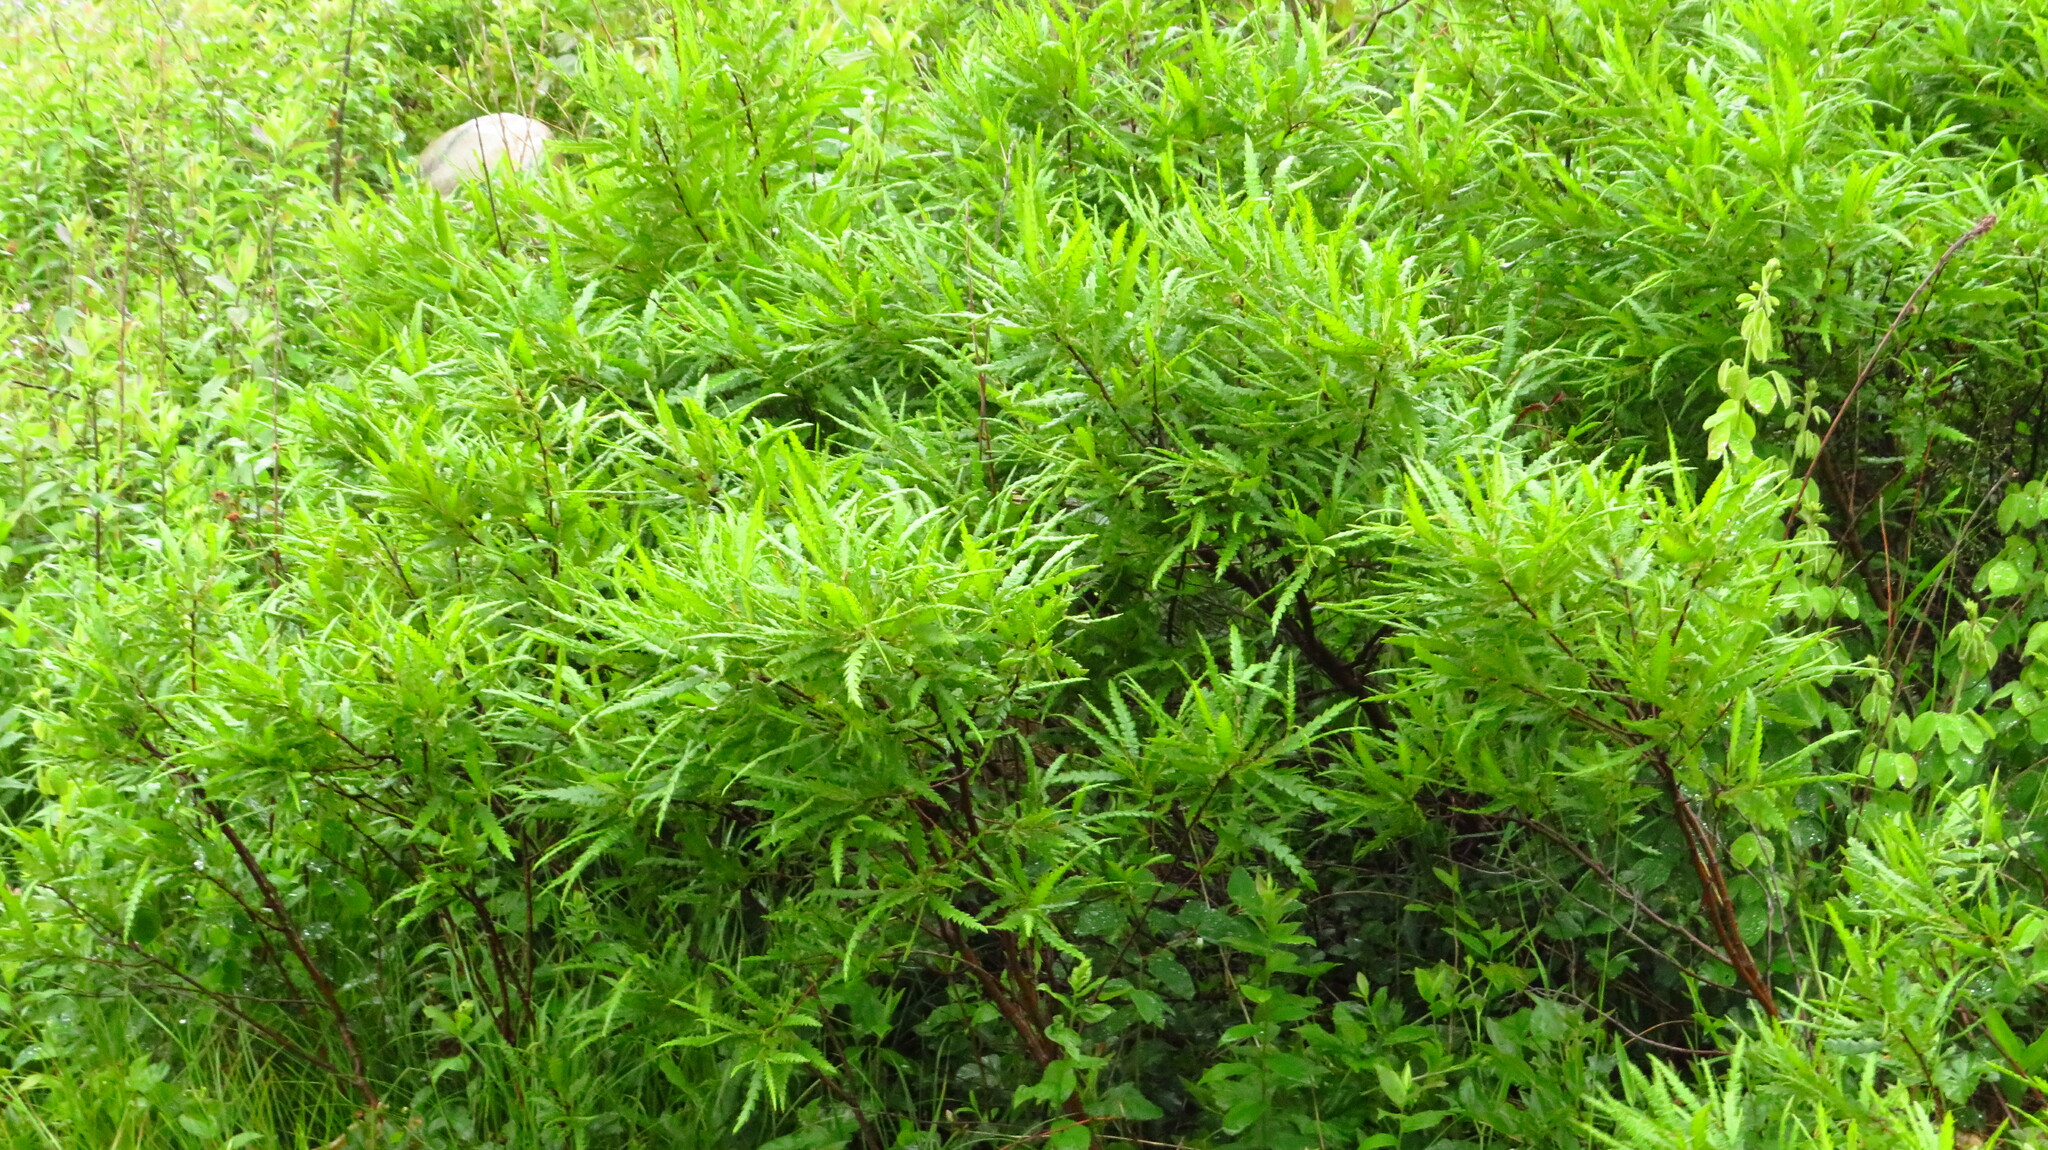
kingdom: Plantae
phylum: Tracheophyta
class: Magnoliopsida
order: Fagales
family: Myricaceae
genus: Comptonia
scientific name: Comptonia peregrina
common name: Sweet-fern
